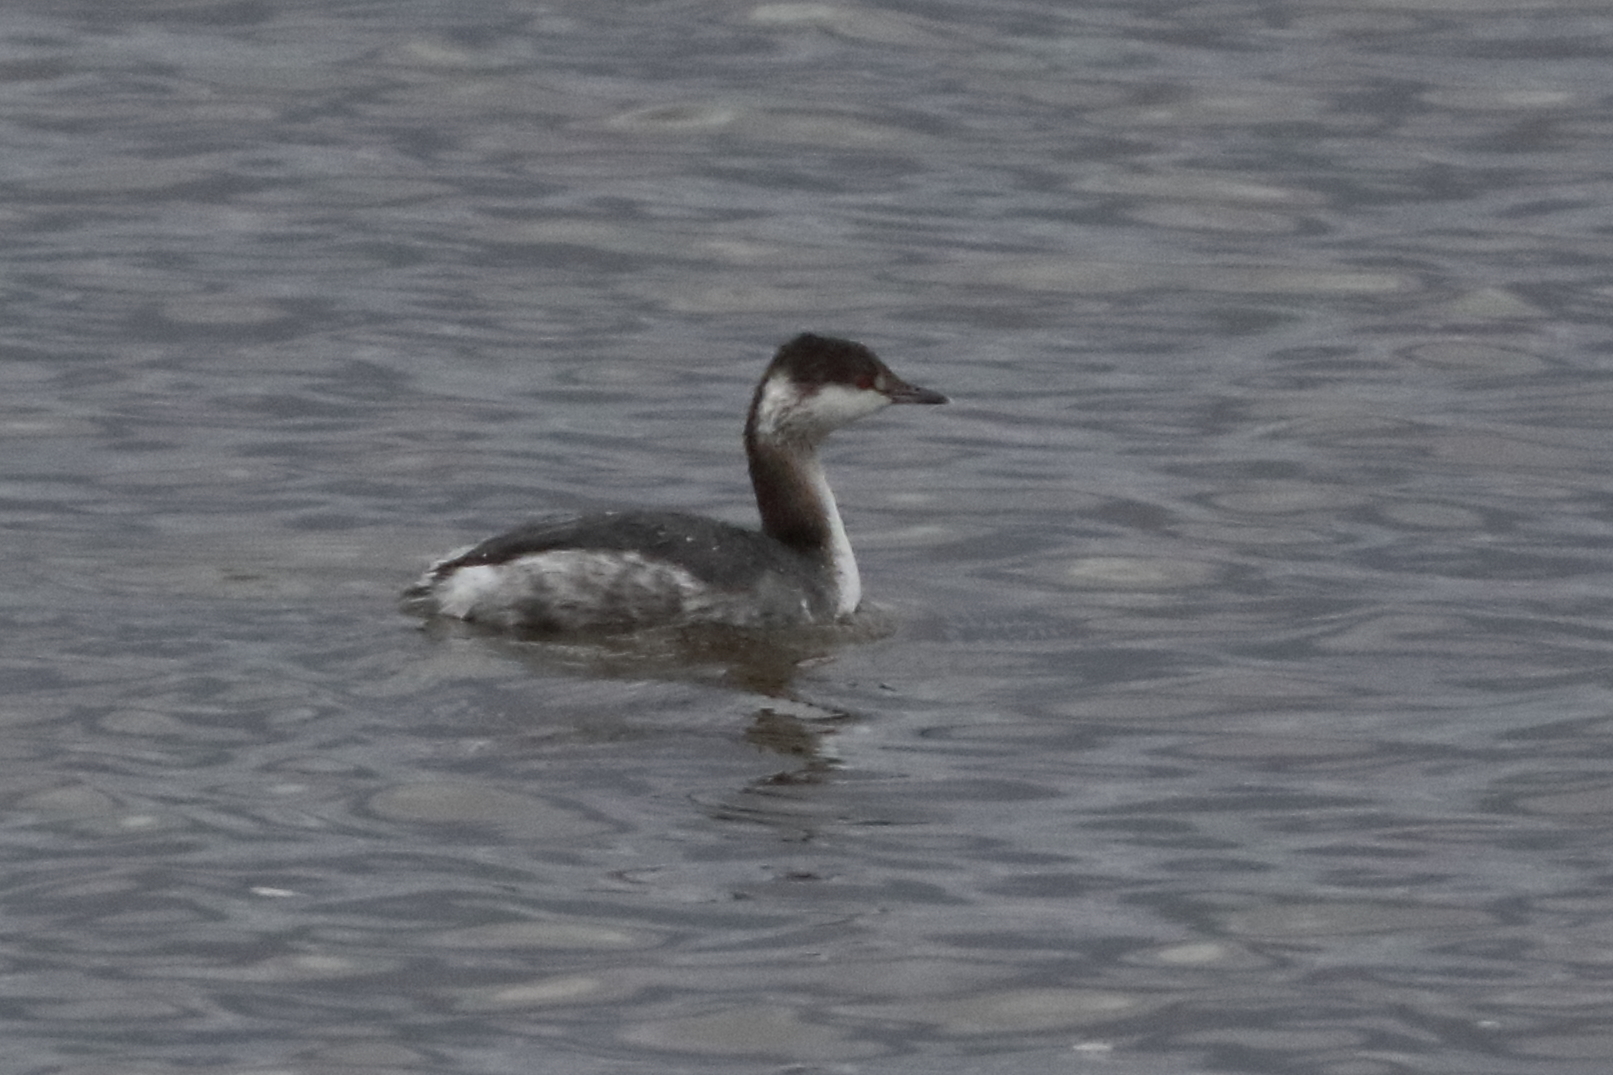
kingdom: Animalia
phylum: Chordata
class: Aves
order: Podicipediformes
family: Podicipedidae
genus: Podiceps
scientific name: Podiceps auritus
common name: Horned grebe
